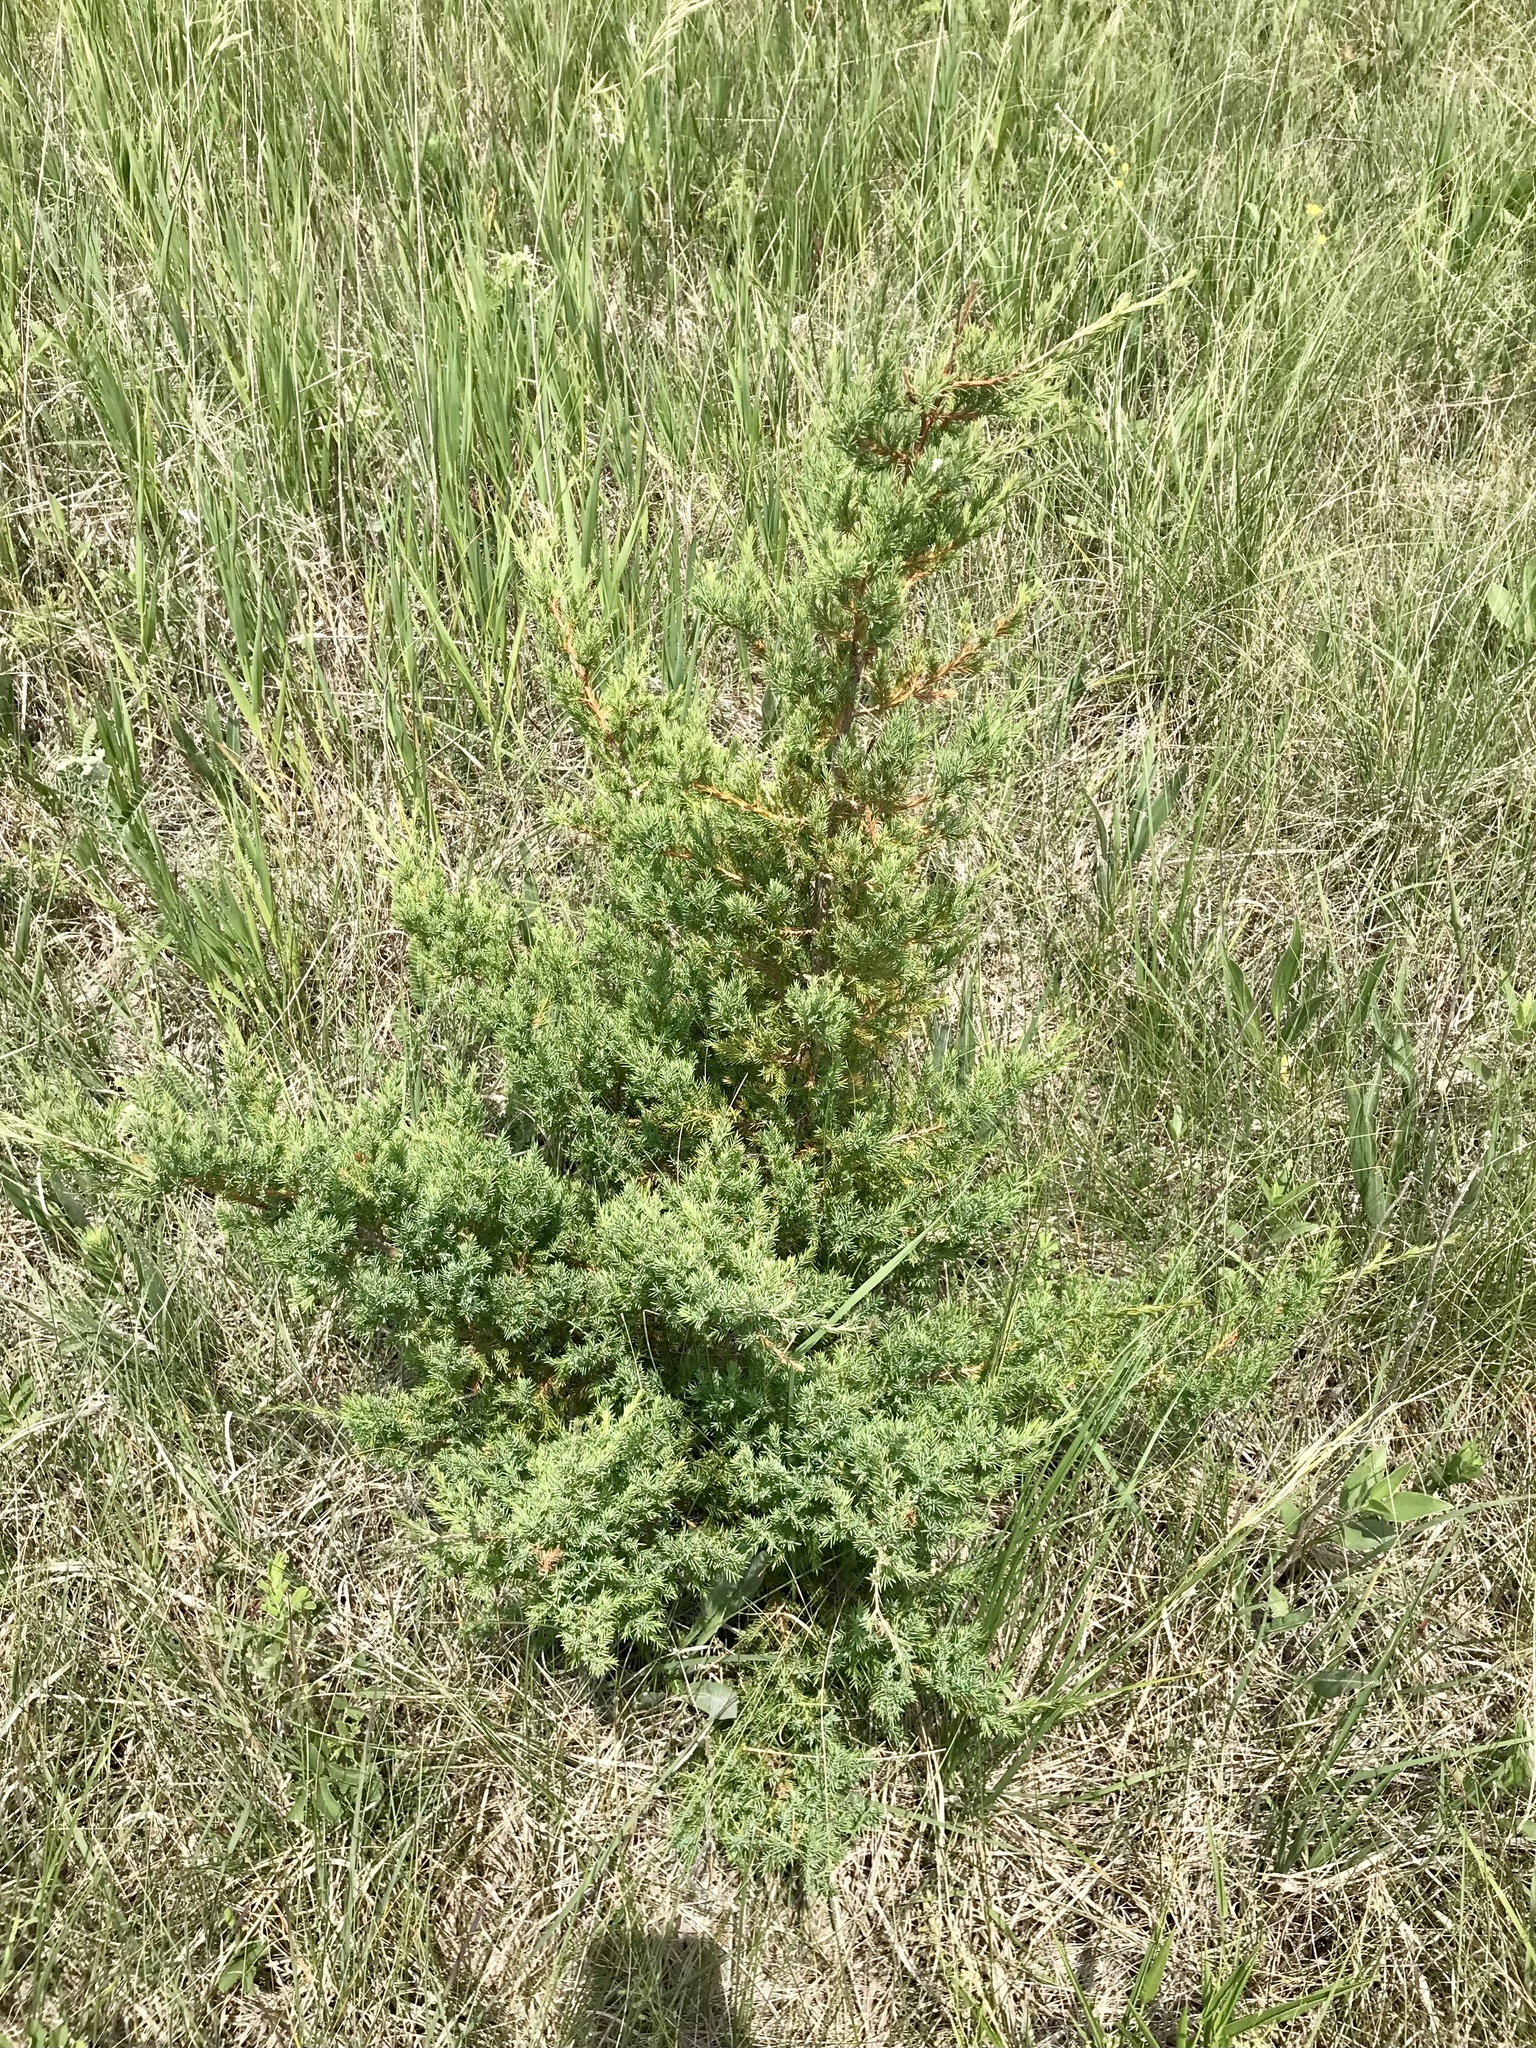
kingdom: Plantae
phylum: Tracheophyta
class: Pinopsida
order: Pinales
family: Cupressaceae
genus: Juniperus
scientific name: Juniperus virginiana
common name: Red juniper
